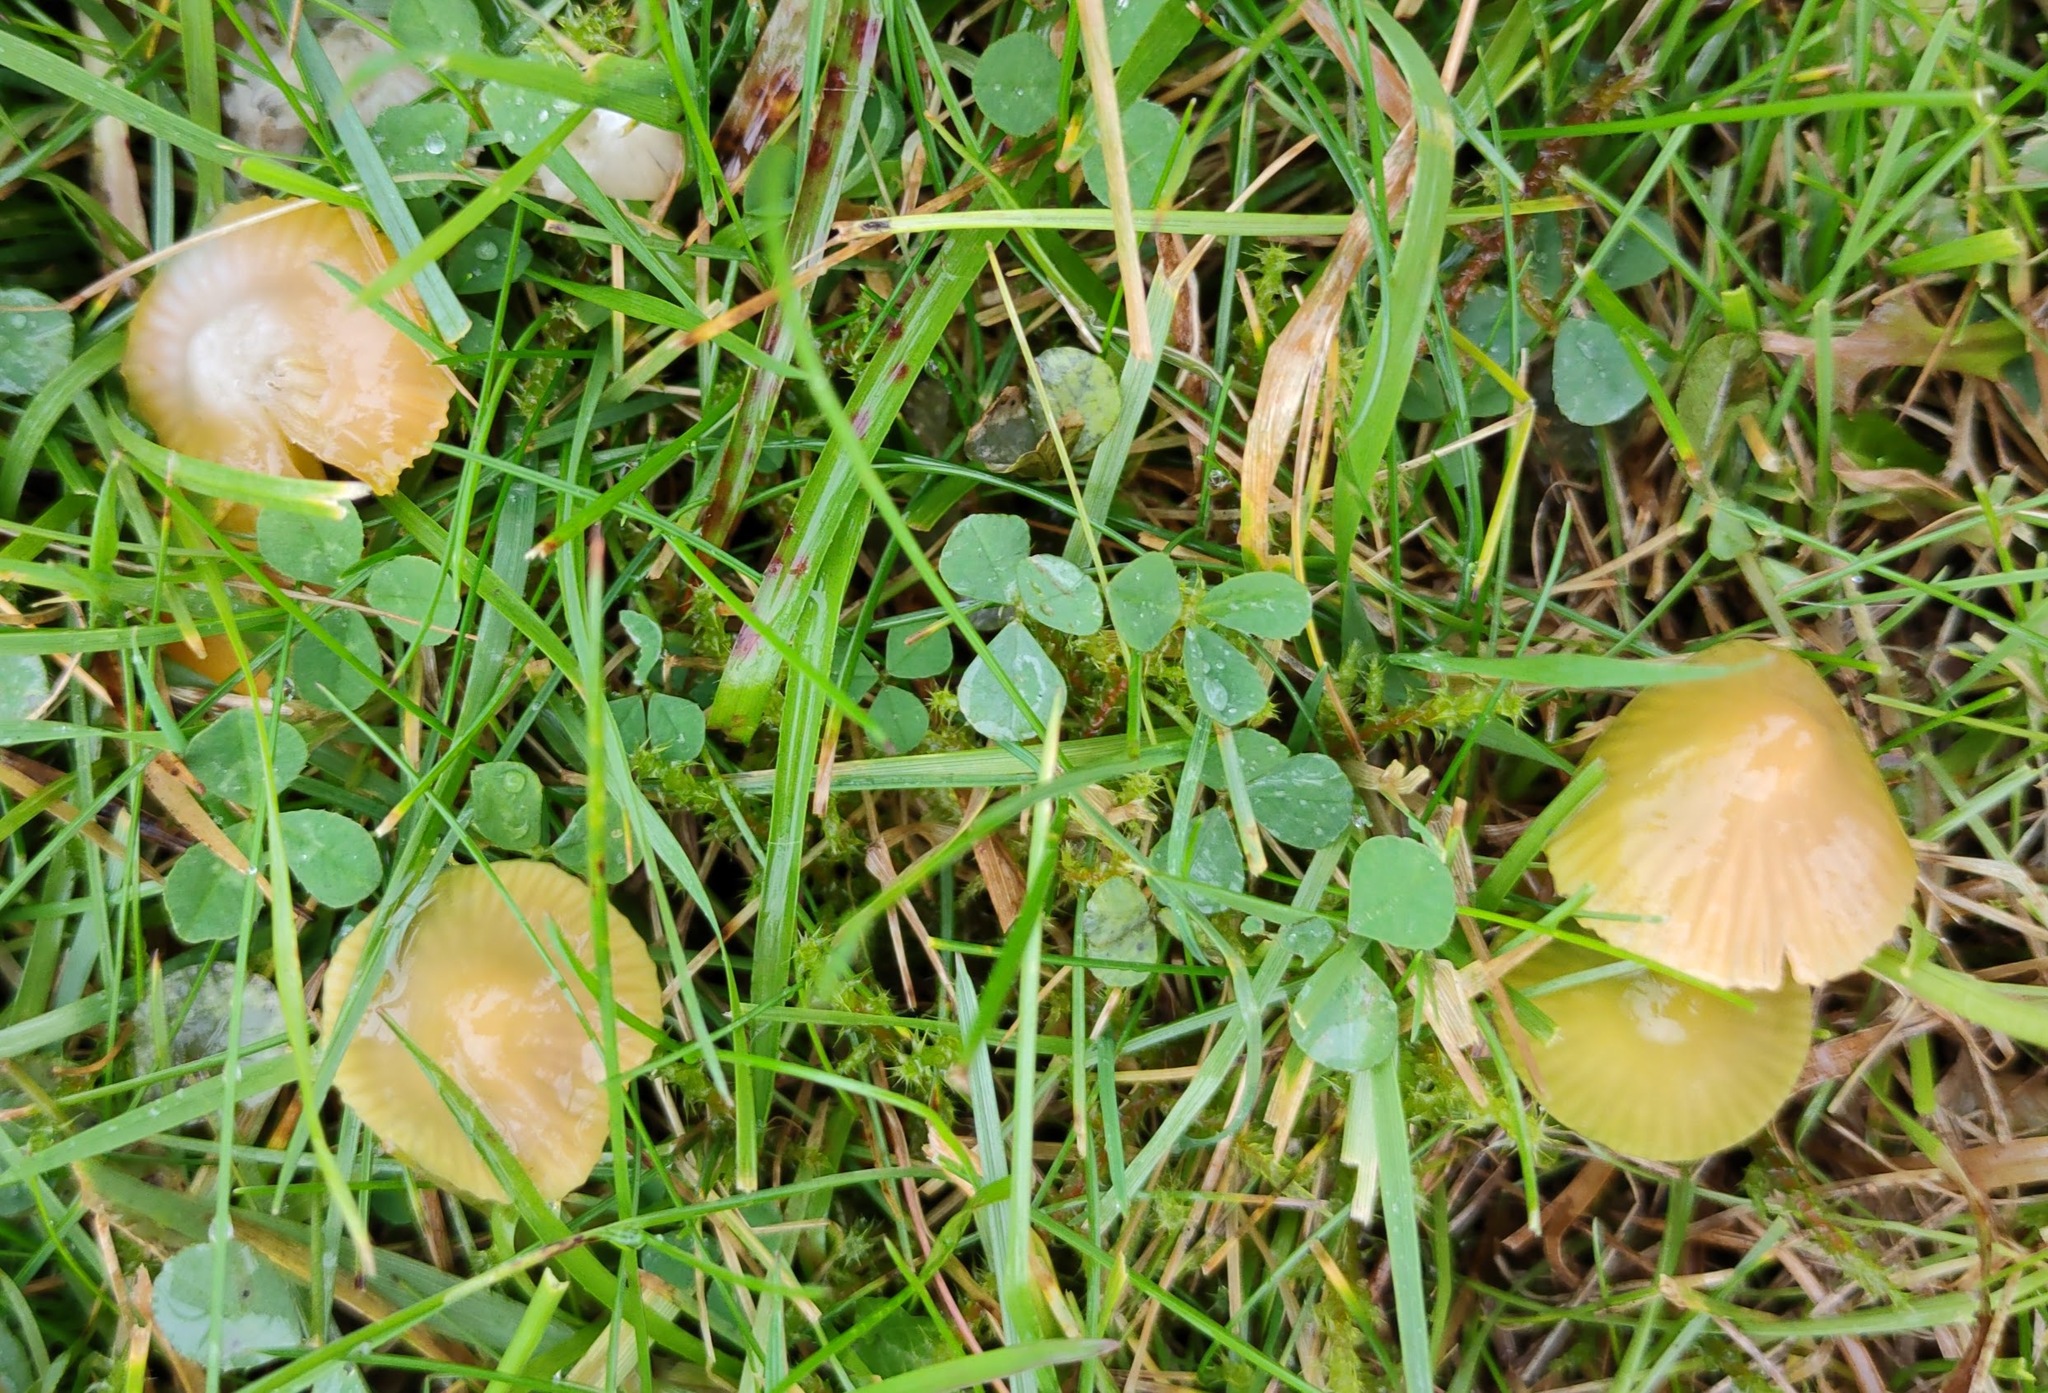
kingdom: Fungi
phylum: Basidiomycota
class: Agaricomycetes
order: Agaricales
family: Hygrophoraceae
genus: Gliophorus
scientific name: Gliophorus psittacinus
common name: Parrot wax-cap
